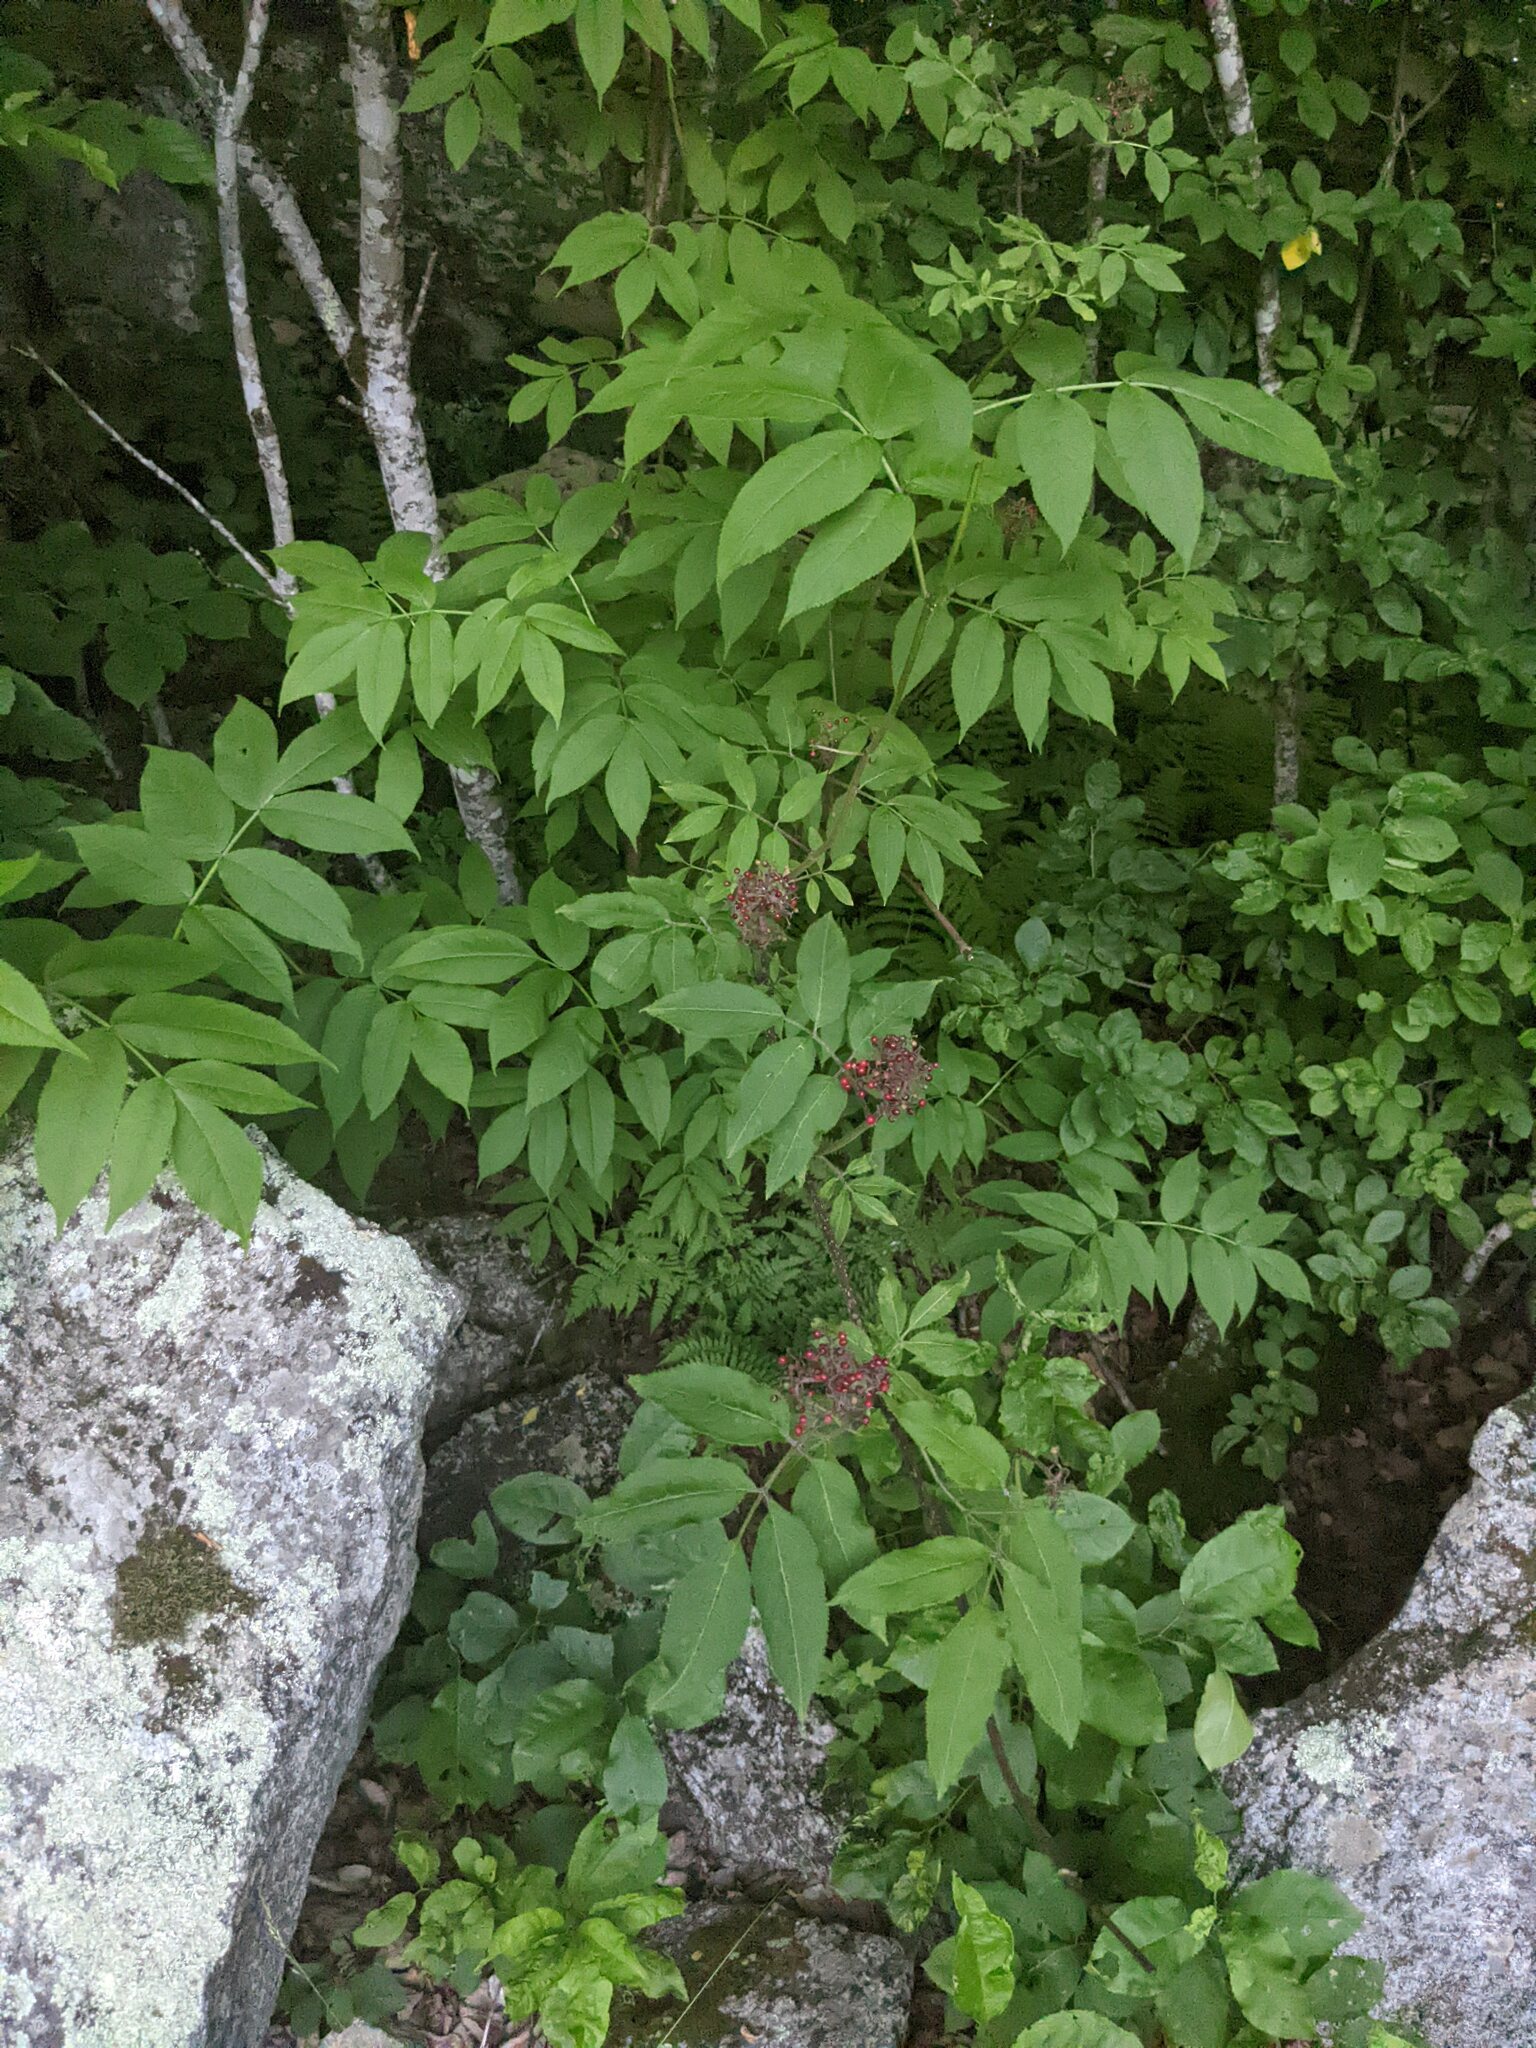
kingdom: Plantae
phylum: Tracheophyta
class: Magnoliopsida
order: Dipsacales
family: Viburnaceae
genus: Sambucus
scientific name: Sambucus racemosa
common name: Red-berried elder
